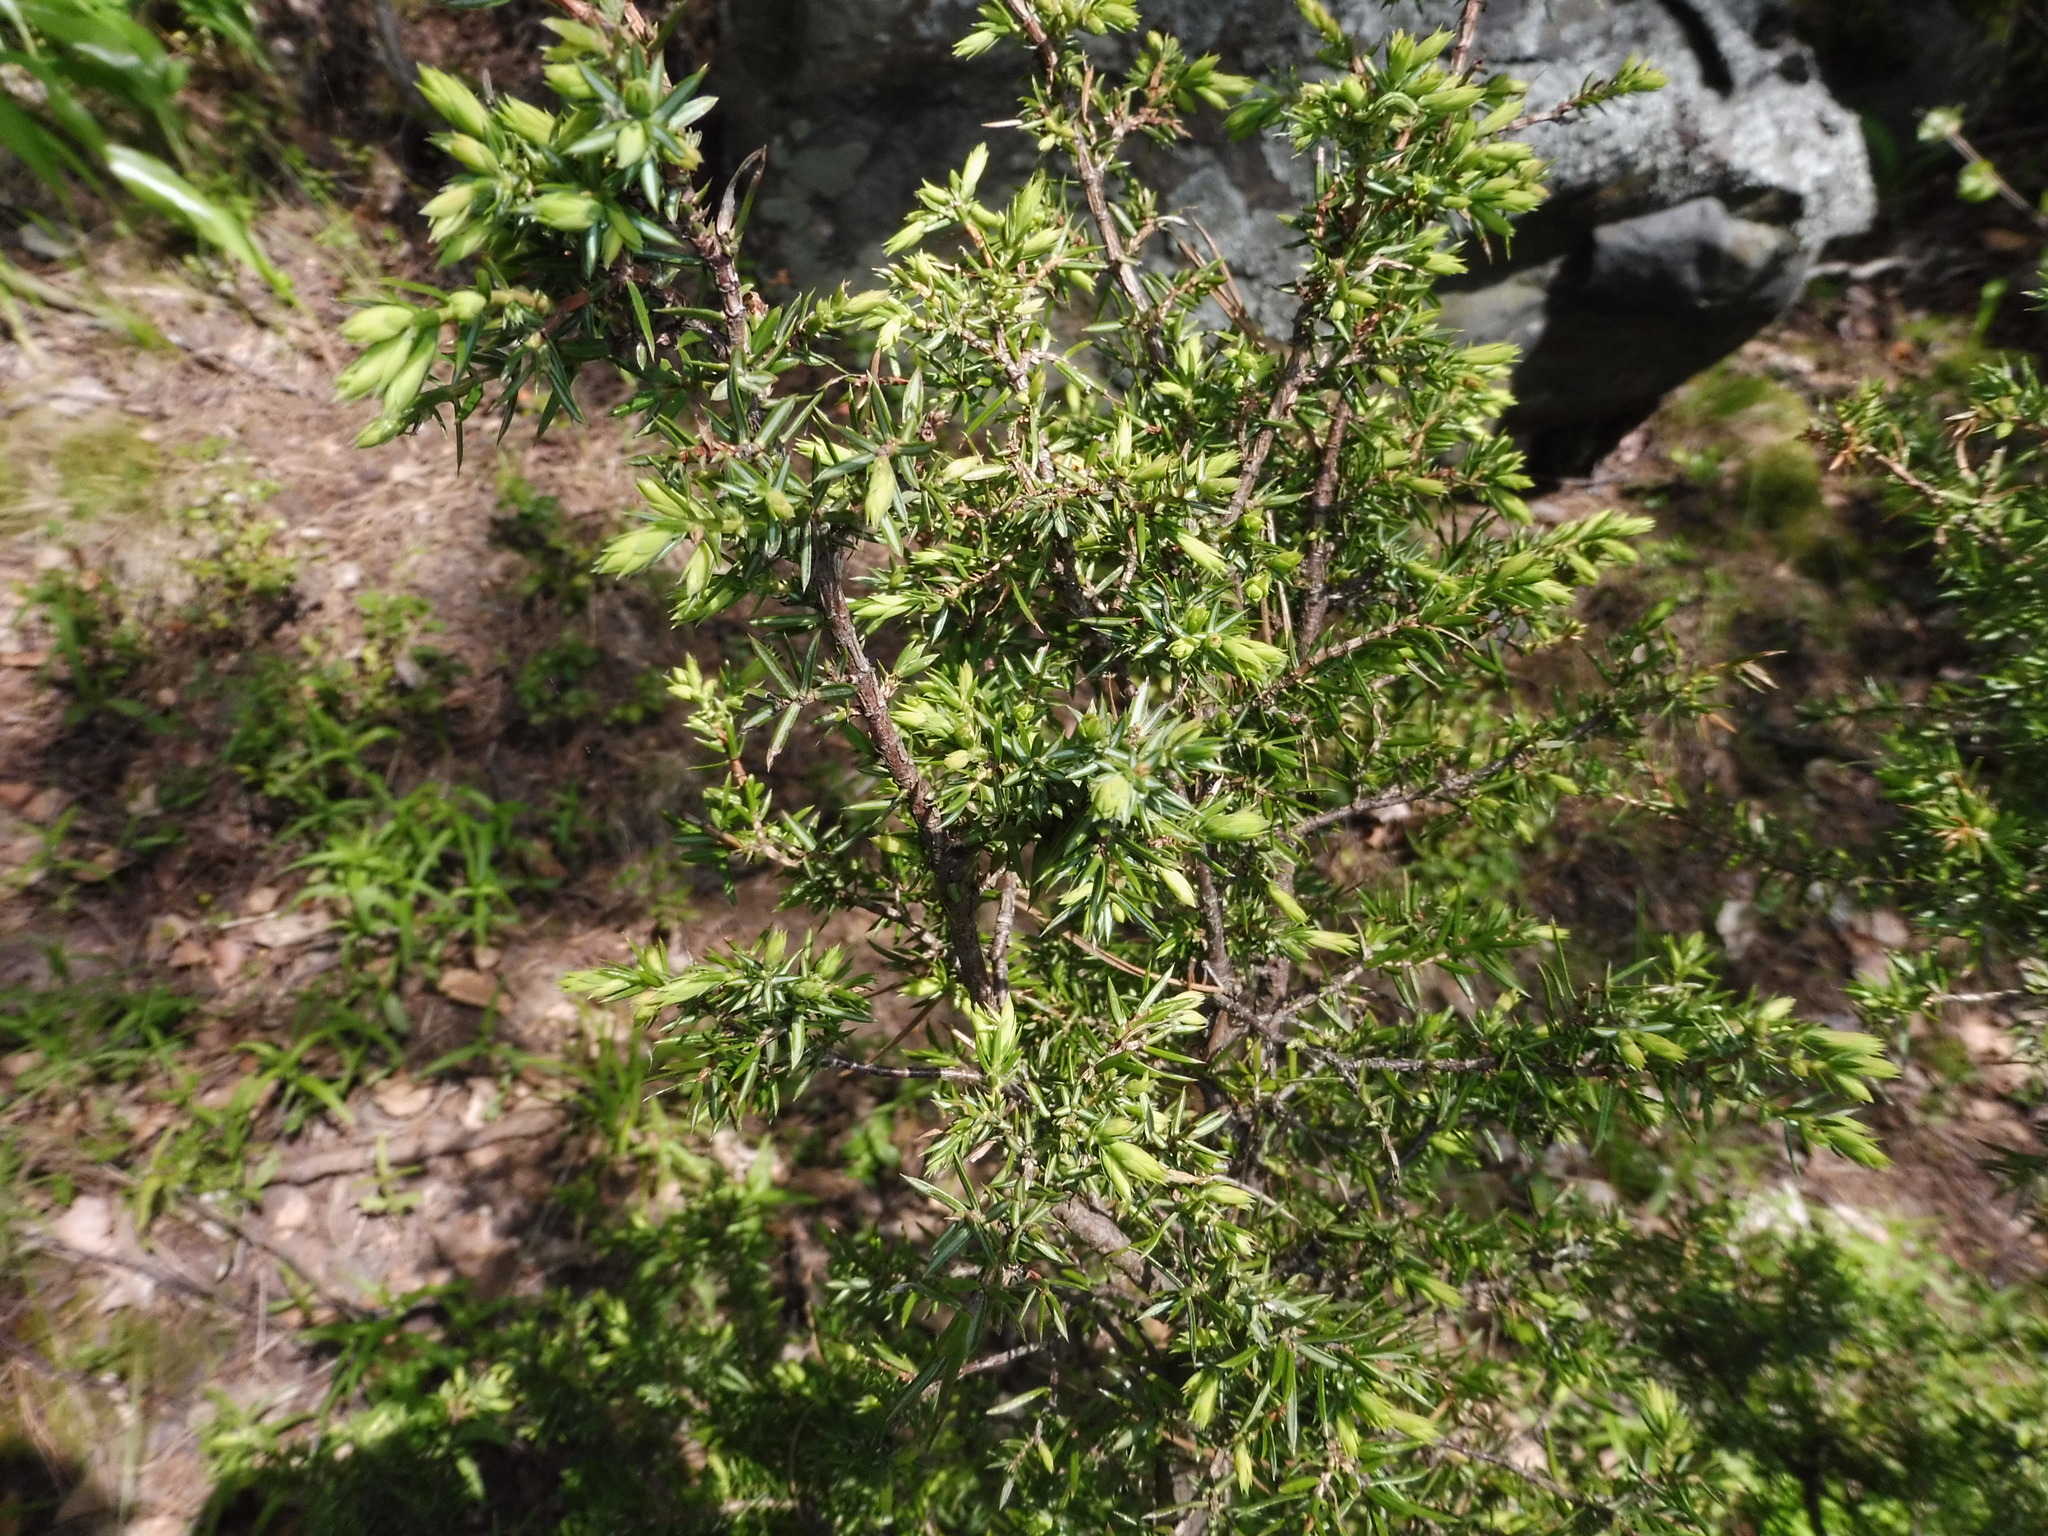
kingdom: Plantae
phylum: Tracheophyta
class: Pinopsida
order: Pinales
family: Cupressaceae
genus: Juniperus
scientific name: Juniperus communis
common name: Common juniper
